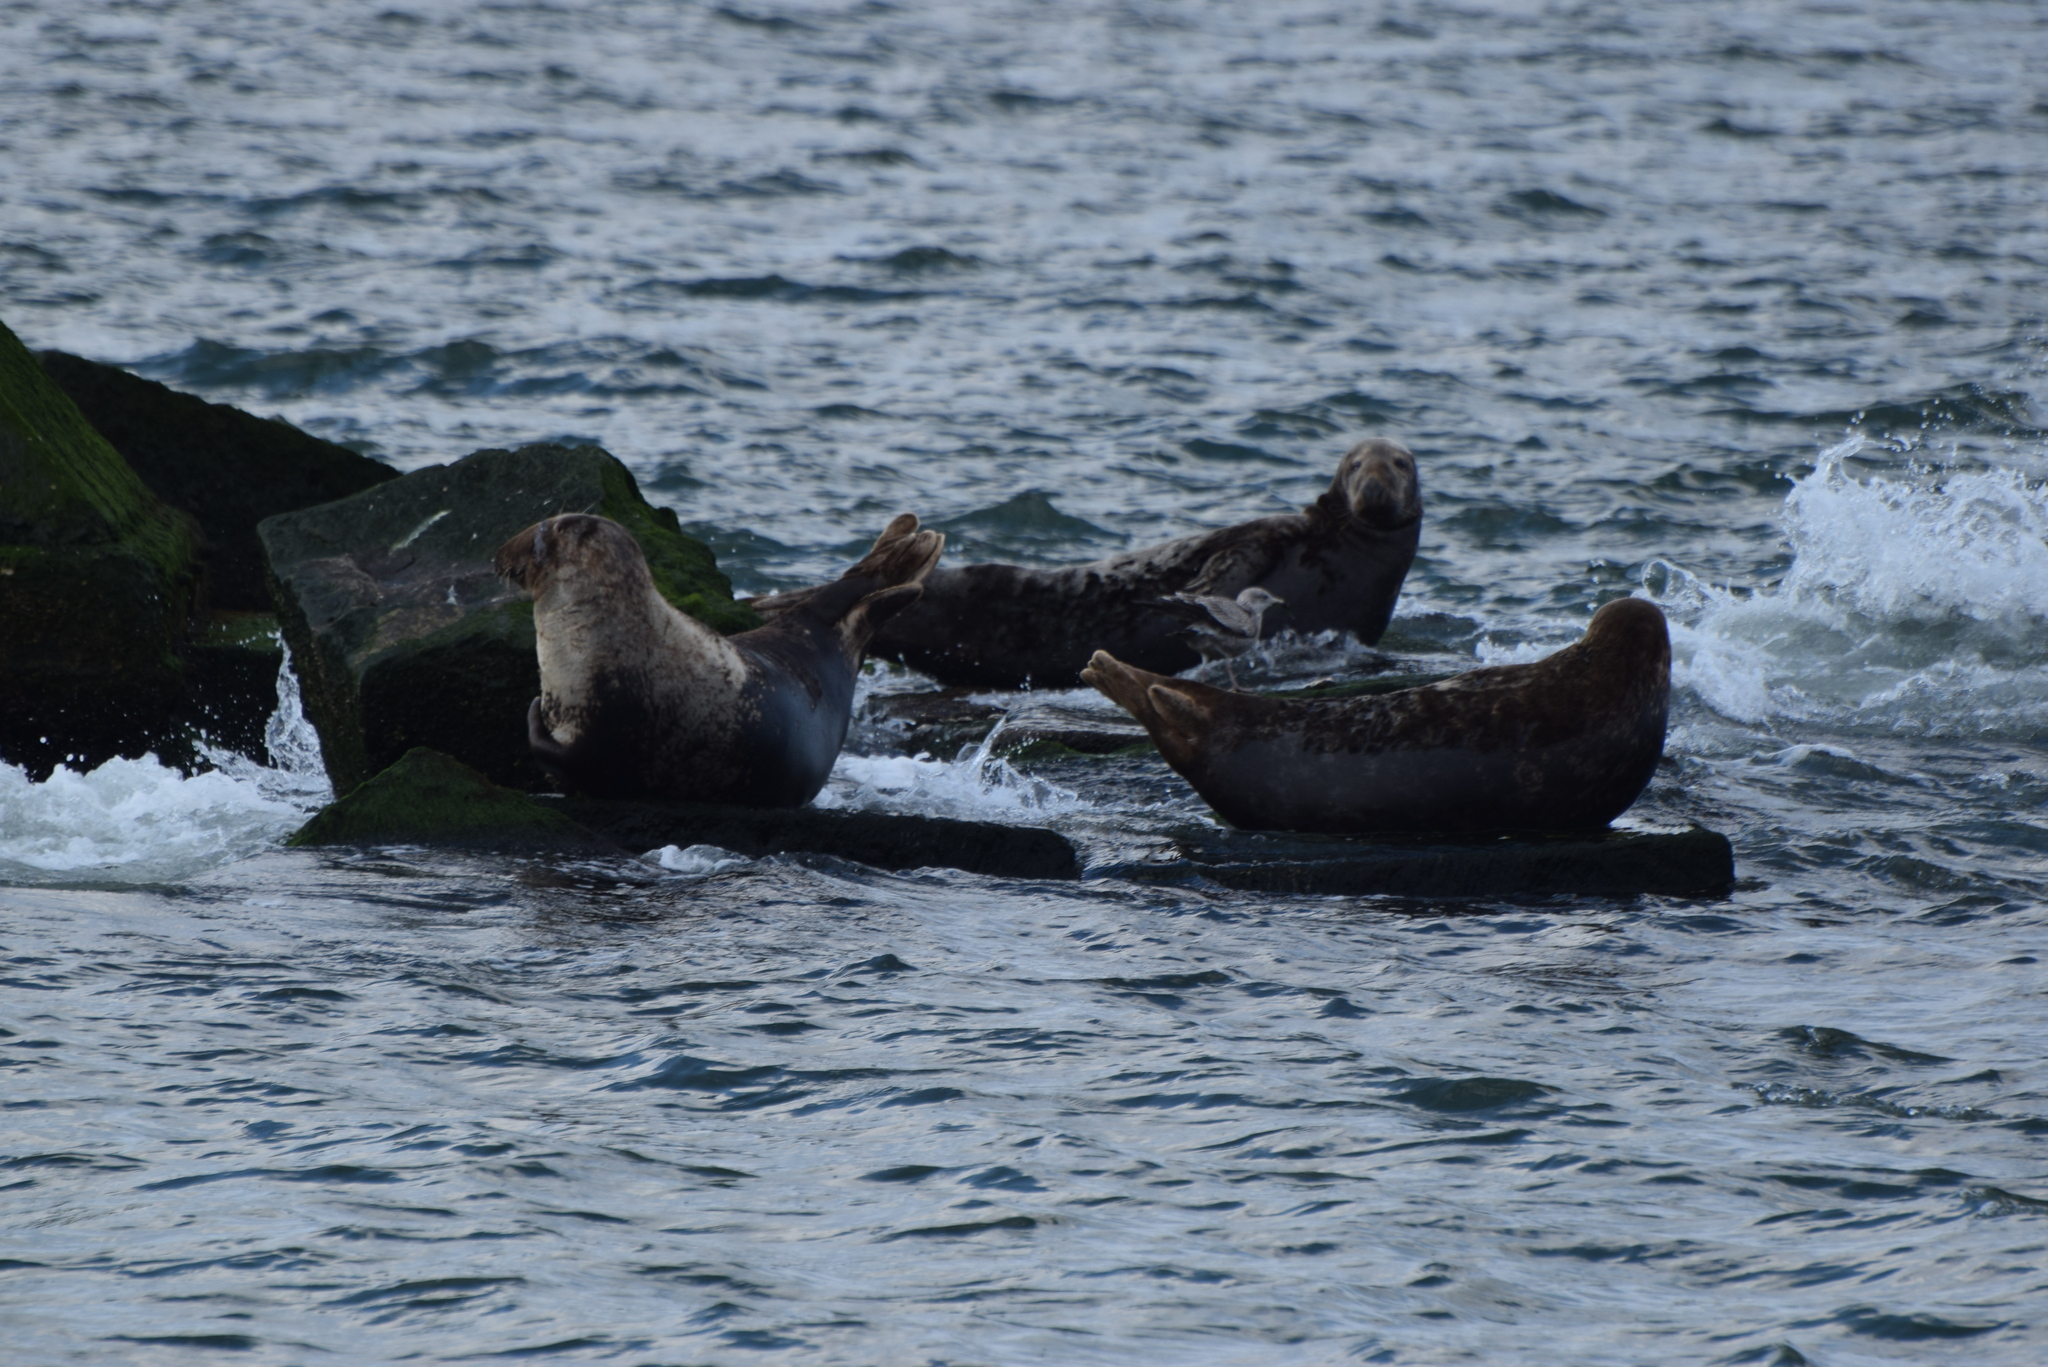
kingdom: Animalia
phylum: Chordata
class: Mammalia
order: Carnivora
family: Phocidae
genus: Halichoerus
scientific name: Halichoerus grypus
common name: Grey seal
